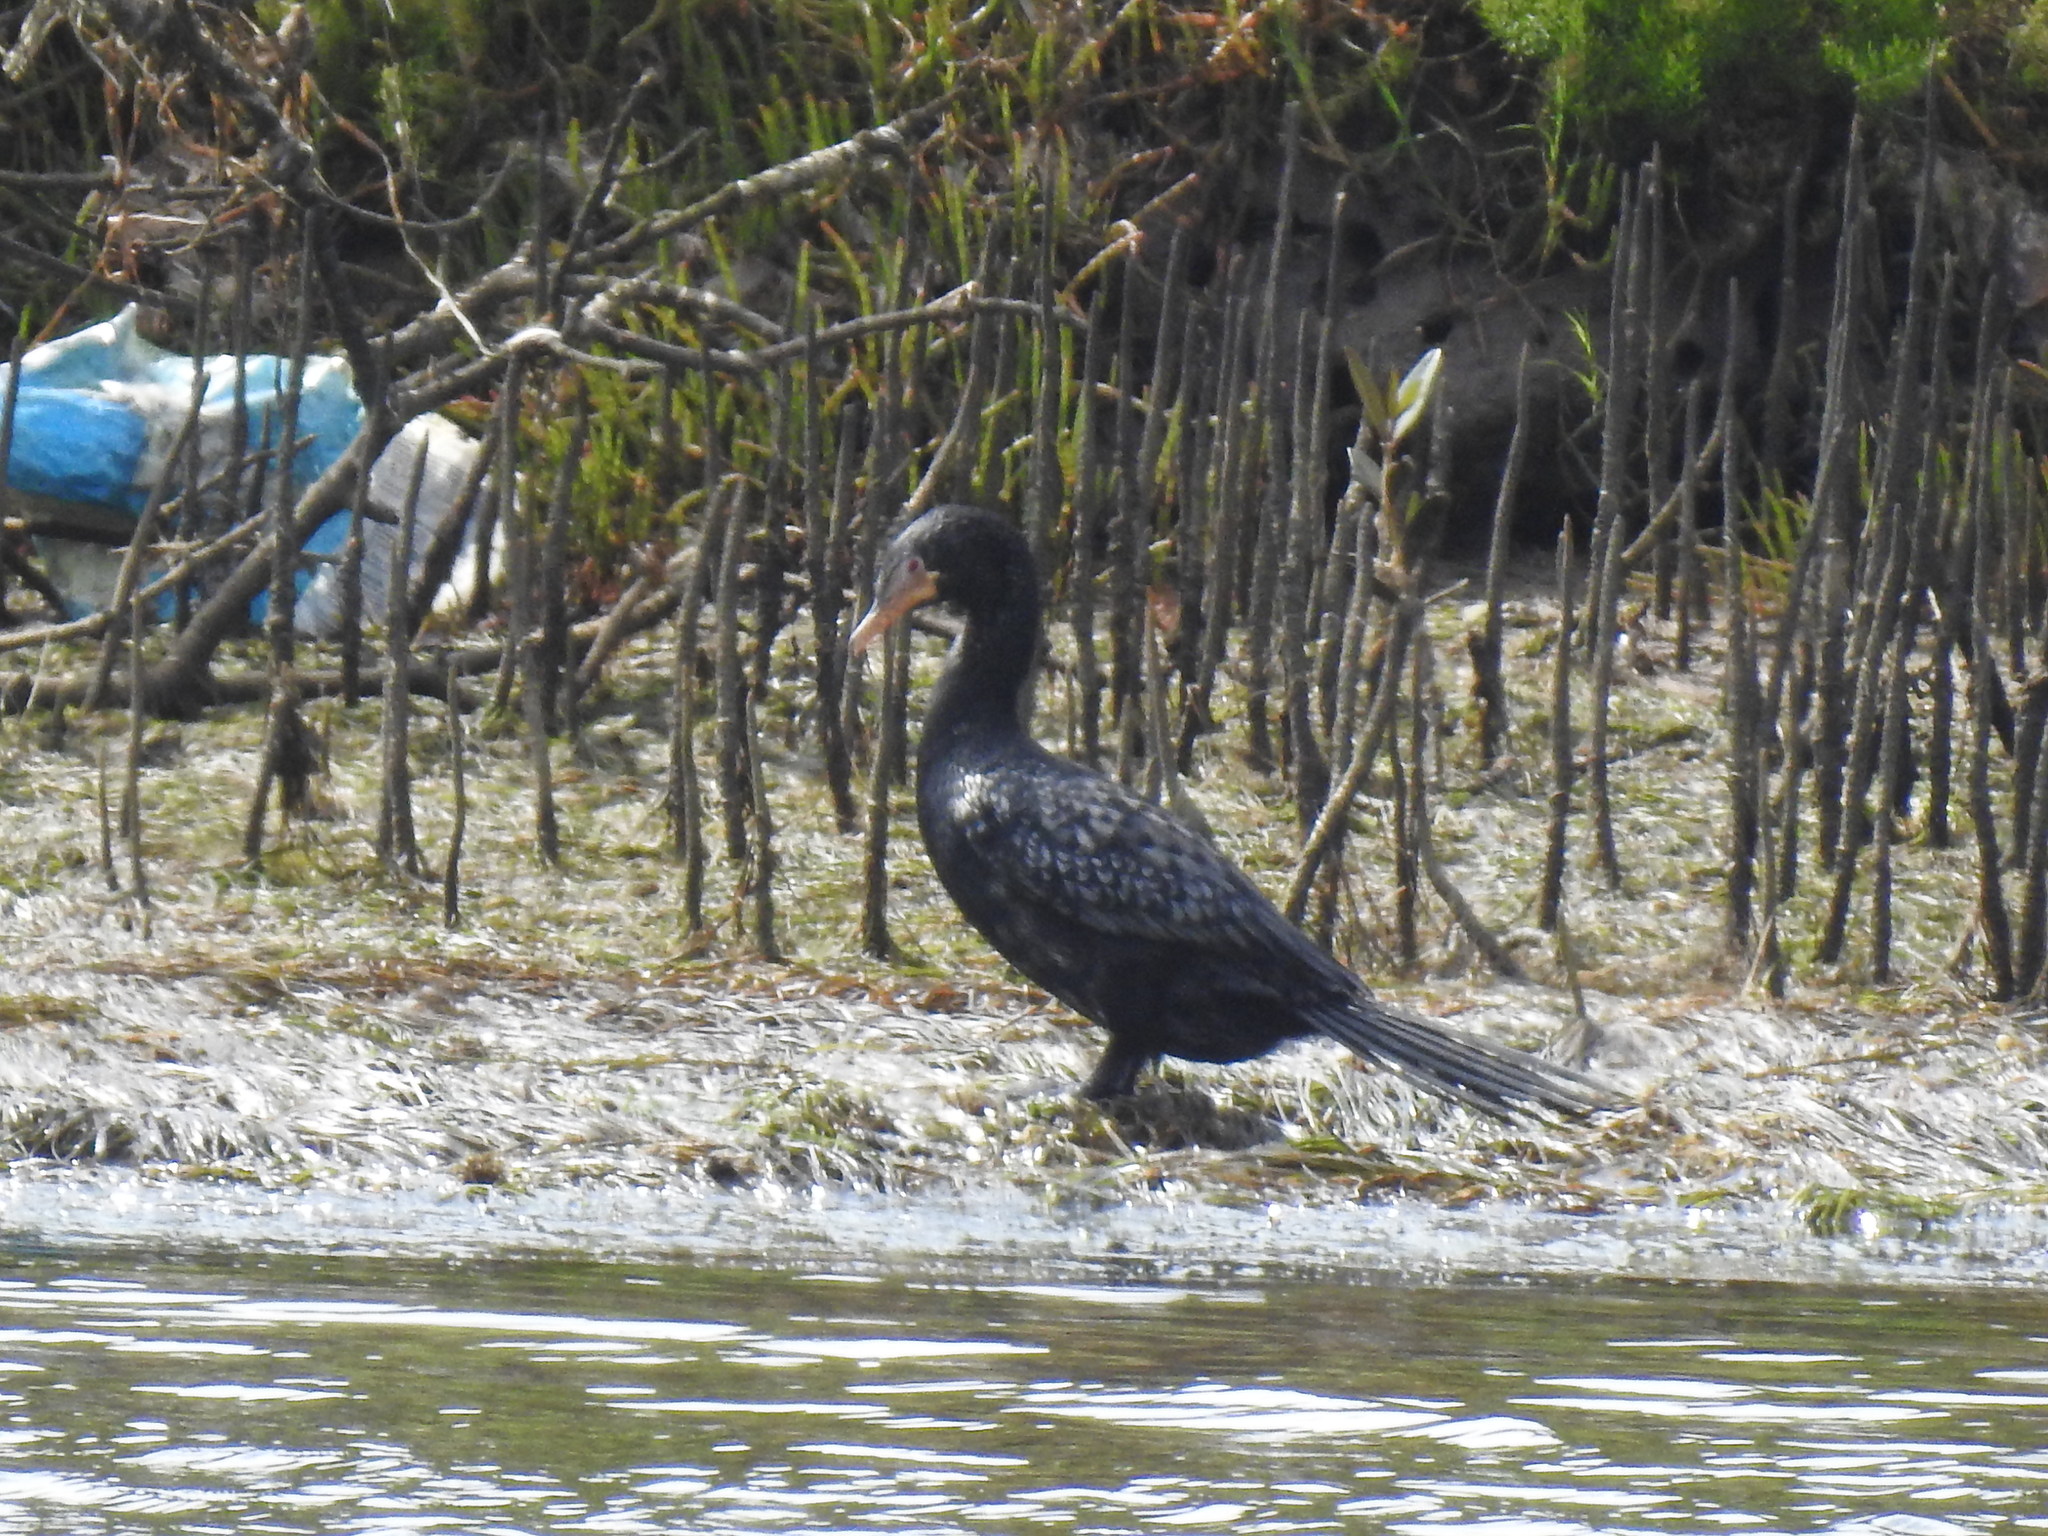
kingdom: Animalia
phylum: Chordata
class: Aves
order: Suliformes
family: Phalacrocoracidae
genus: Microcarbo
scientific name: Microcarbo africanus
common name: Long-tailed cormorant
